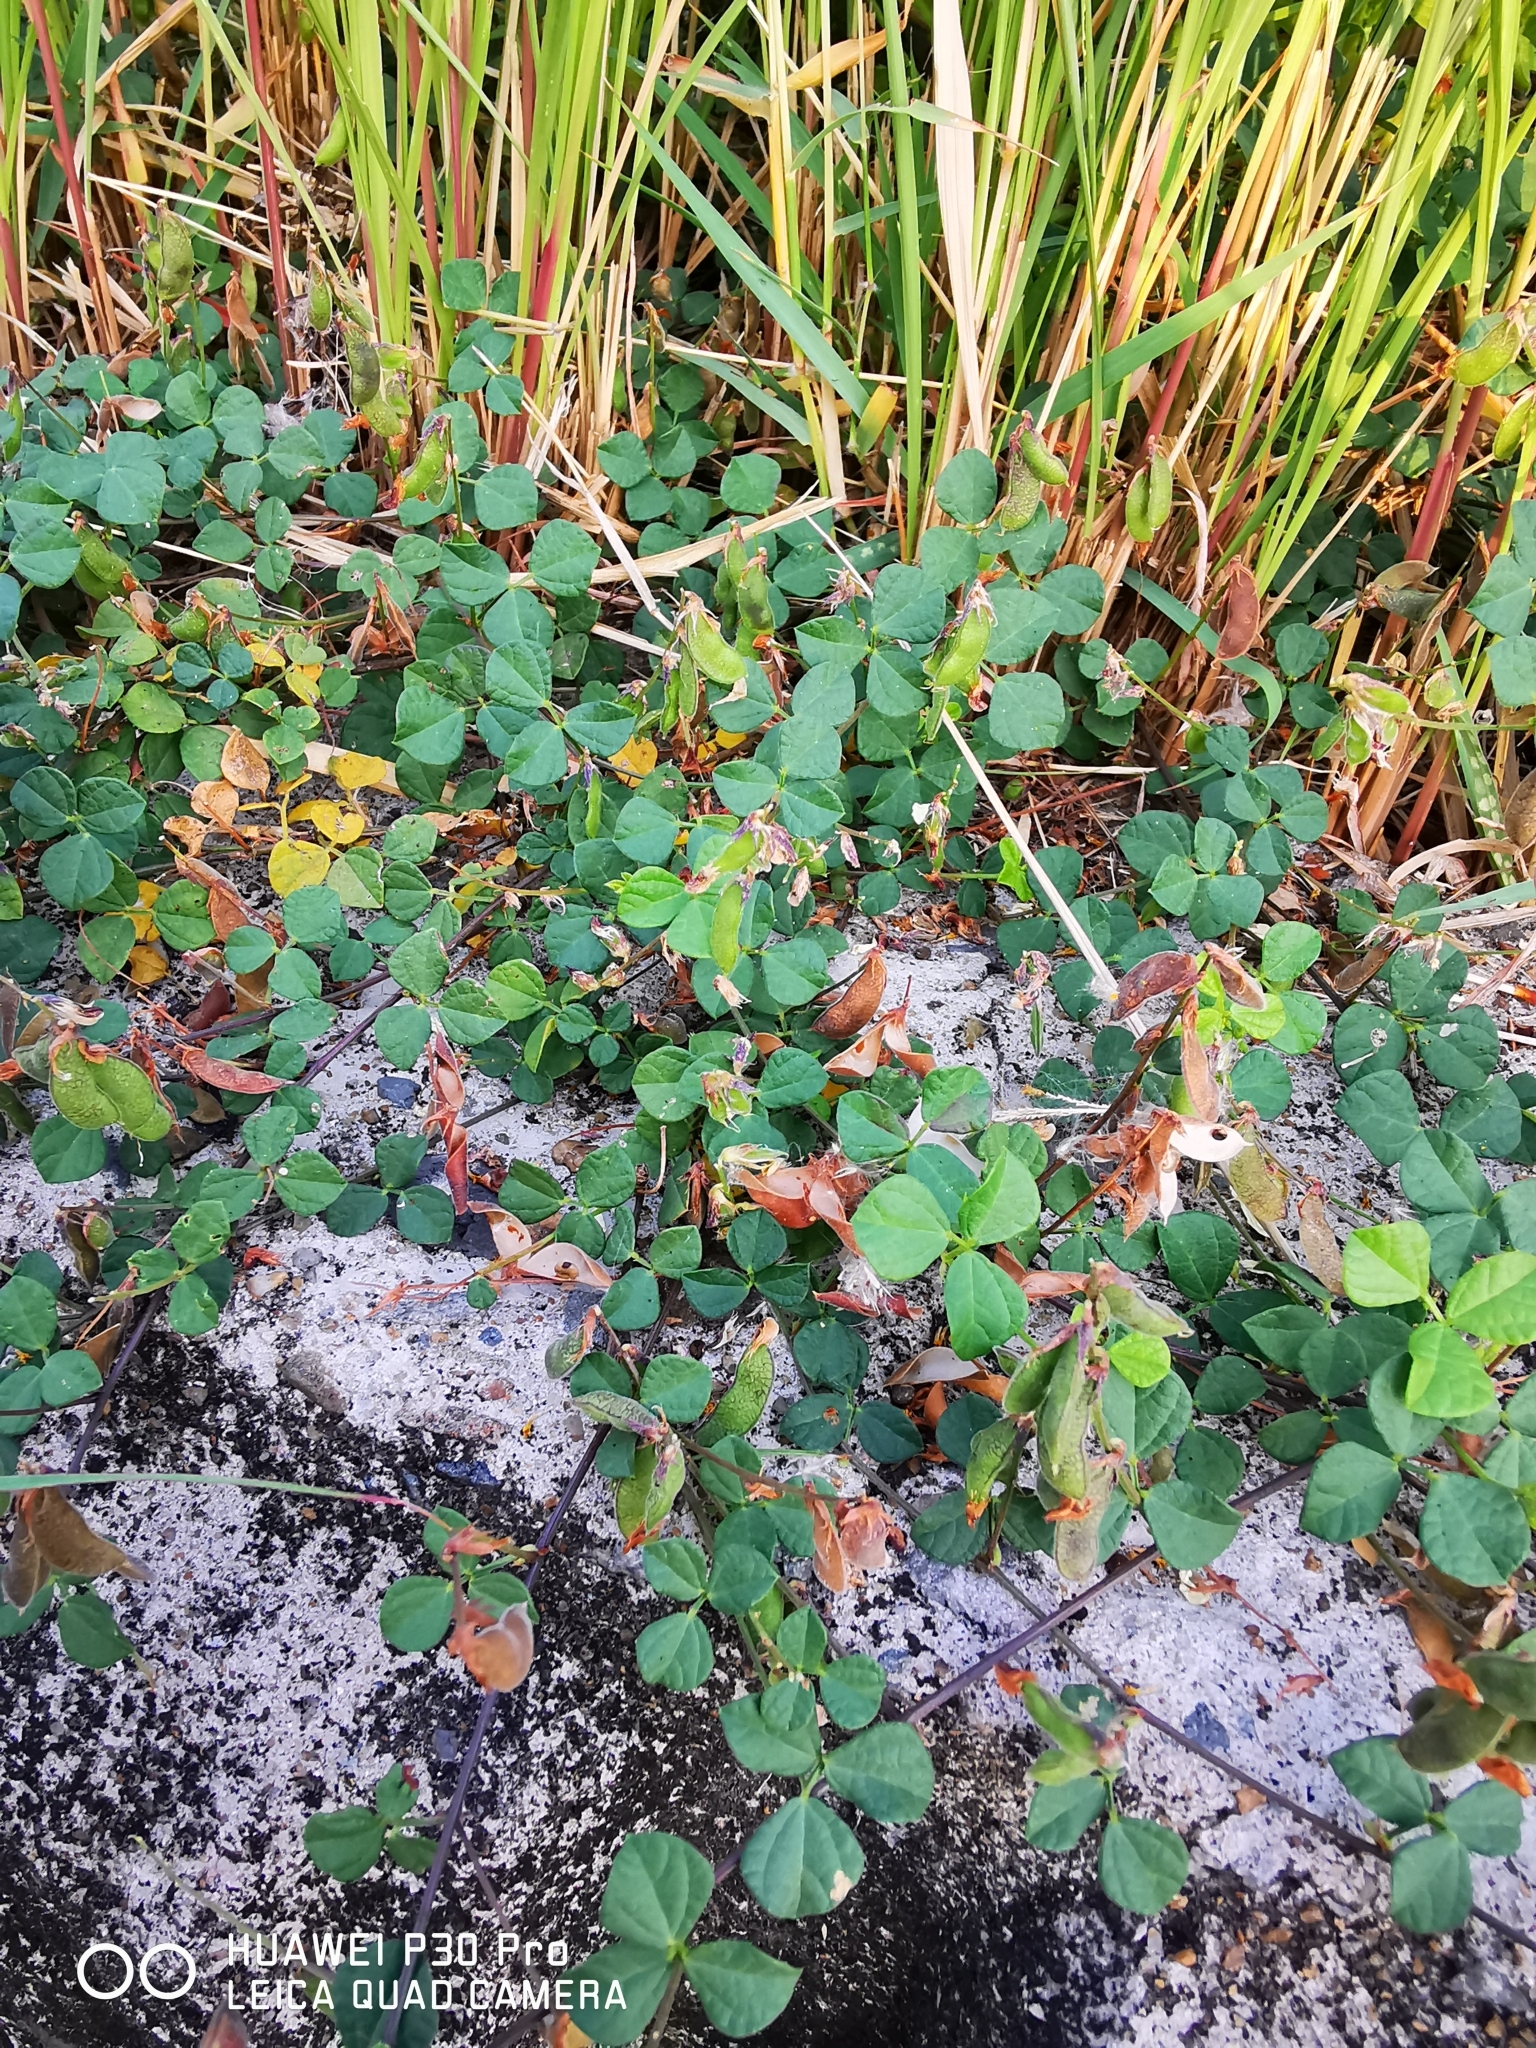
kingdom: Plantae
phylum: Tracheophyta
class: Magnoliopsida
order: Fabales
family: Fabaceae
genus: Rhynchosia
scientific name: Rhynchosia minima
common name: Least snoutbean
